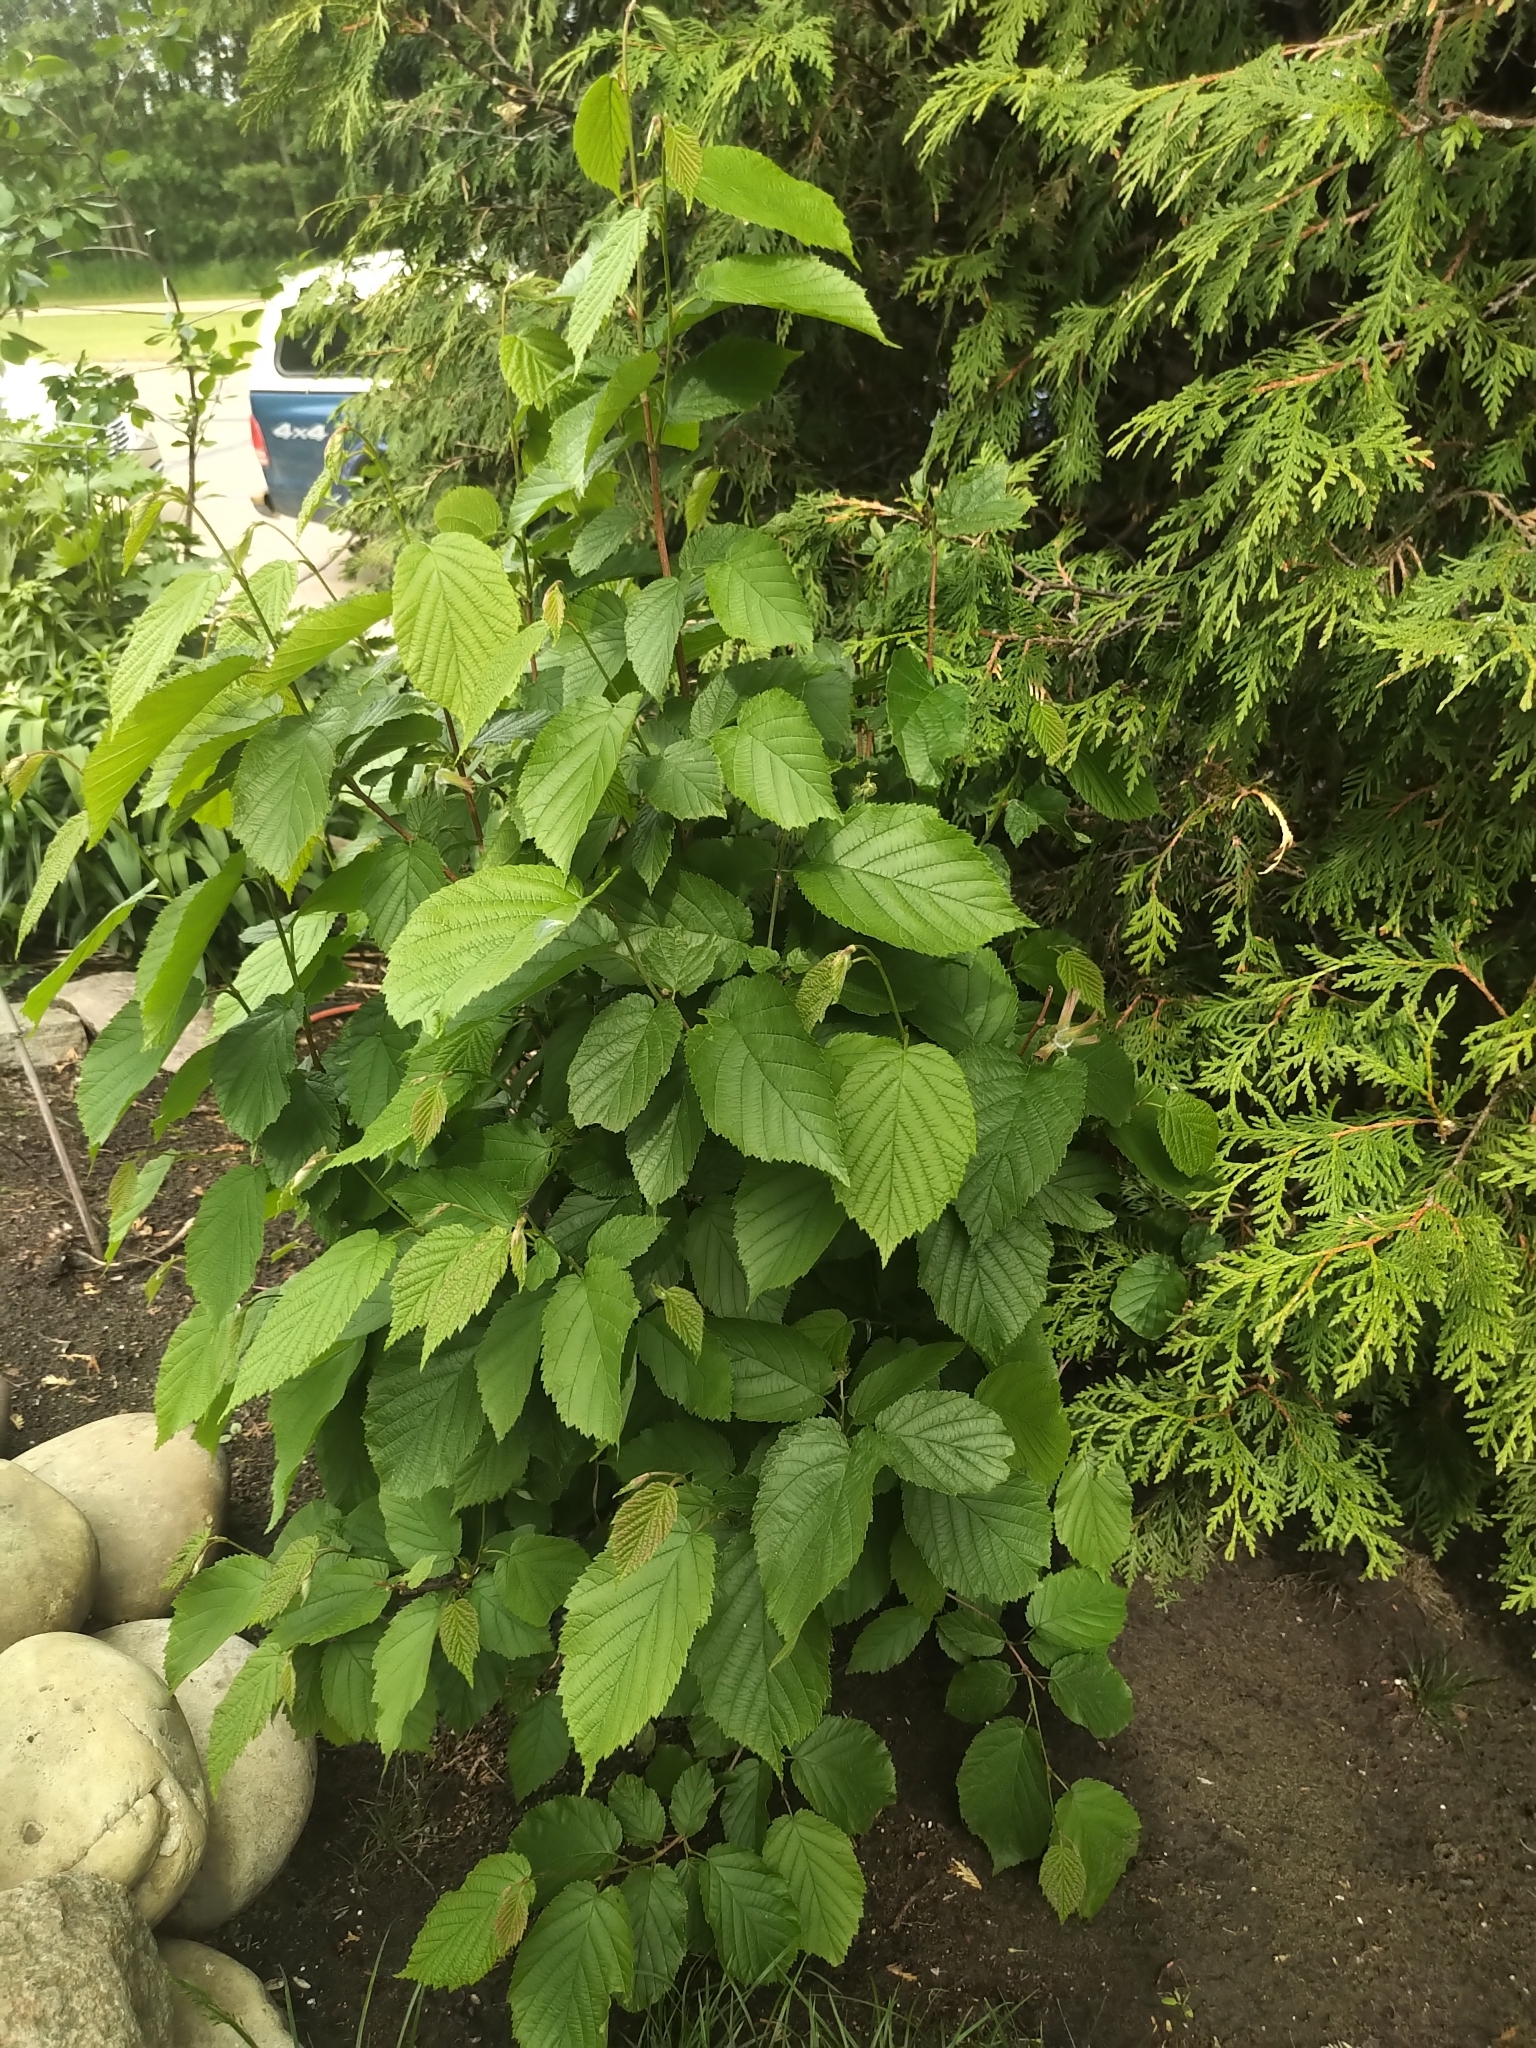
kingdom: Plantae
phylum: Tracheophyta
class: Magnoliopsida
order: Fagales
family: Betulaceae
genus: Corylus
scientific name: Corylus cornuta
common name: Beaked hazel
